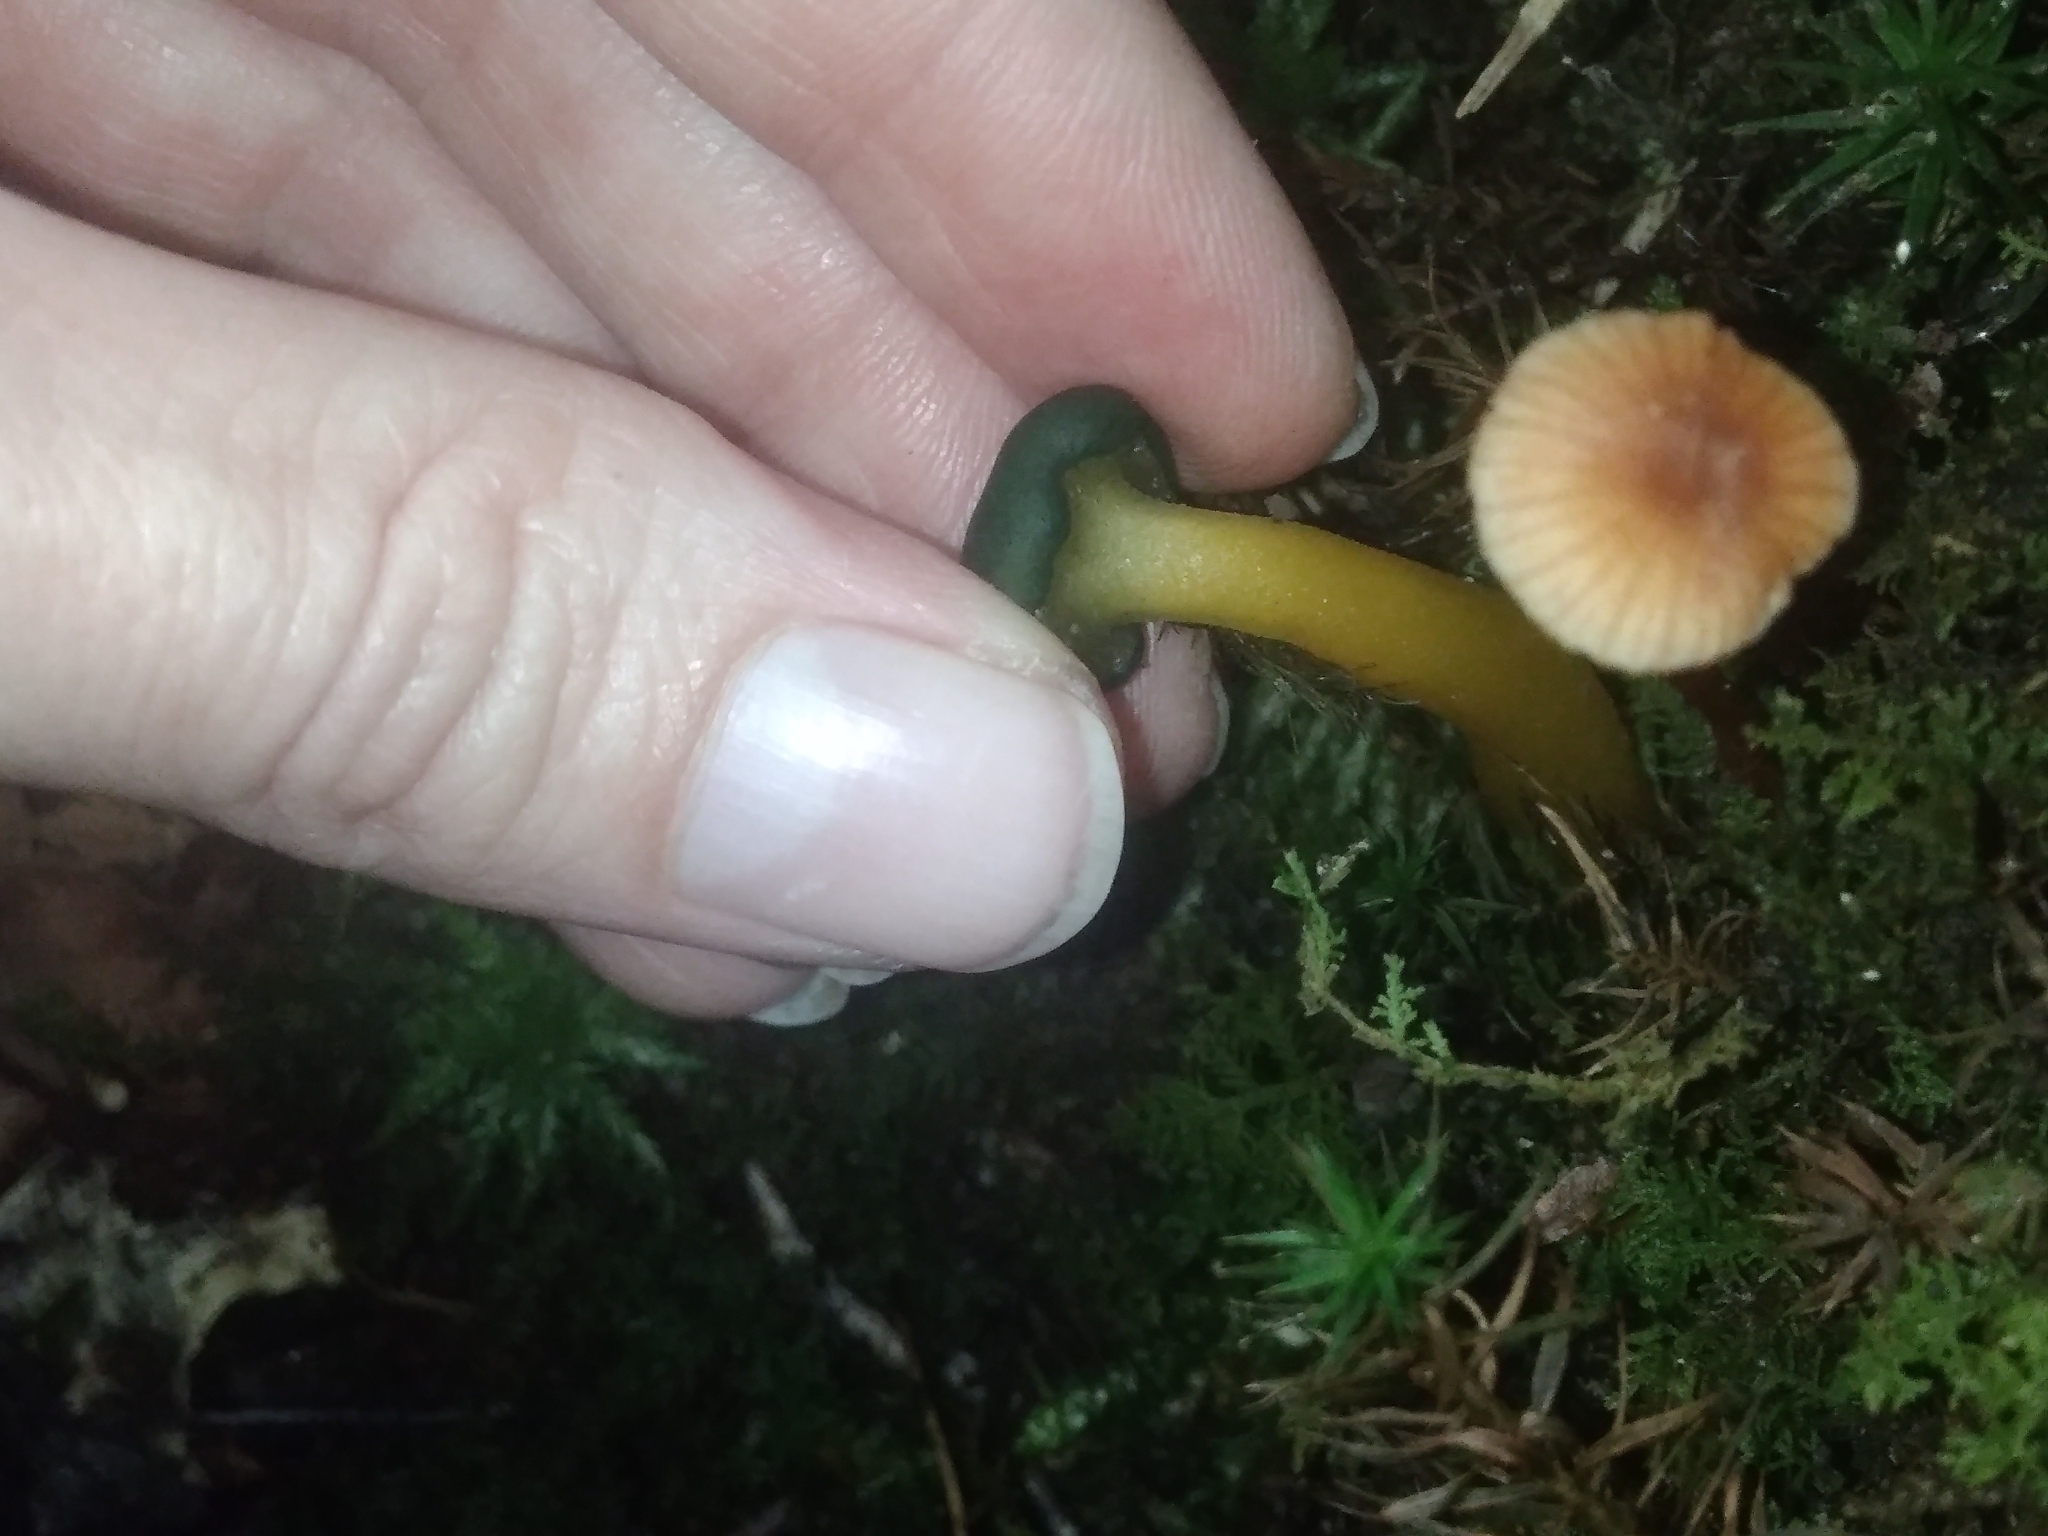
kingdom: Fungi
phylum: Ascomycota
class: Leotiomycetes
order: Leotiales
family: Leotiaceae
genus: Leotia
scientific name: Leotia lubrica
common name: Jellybaby
